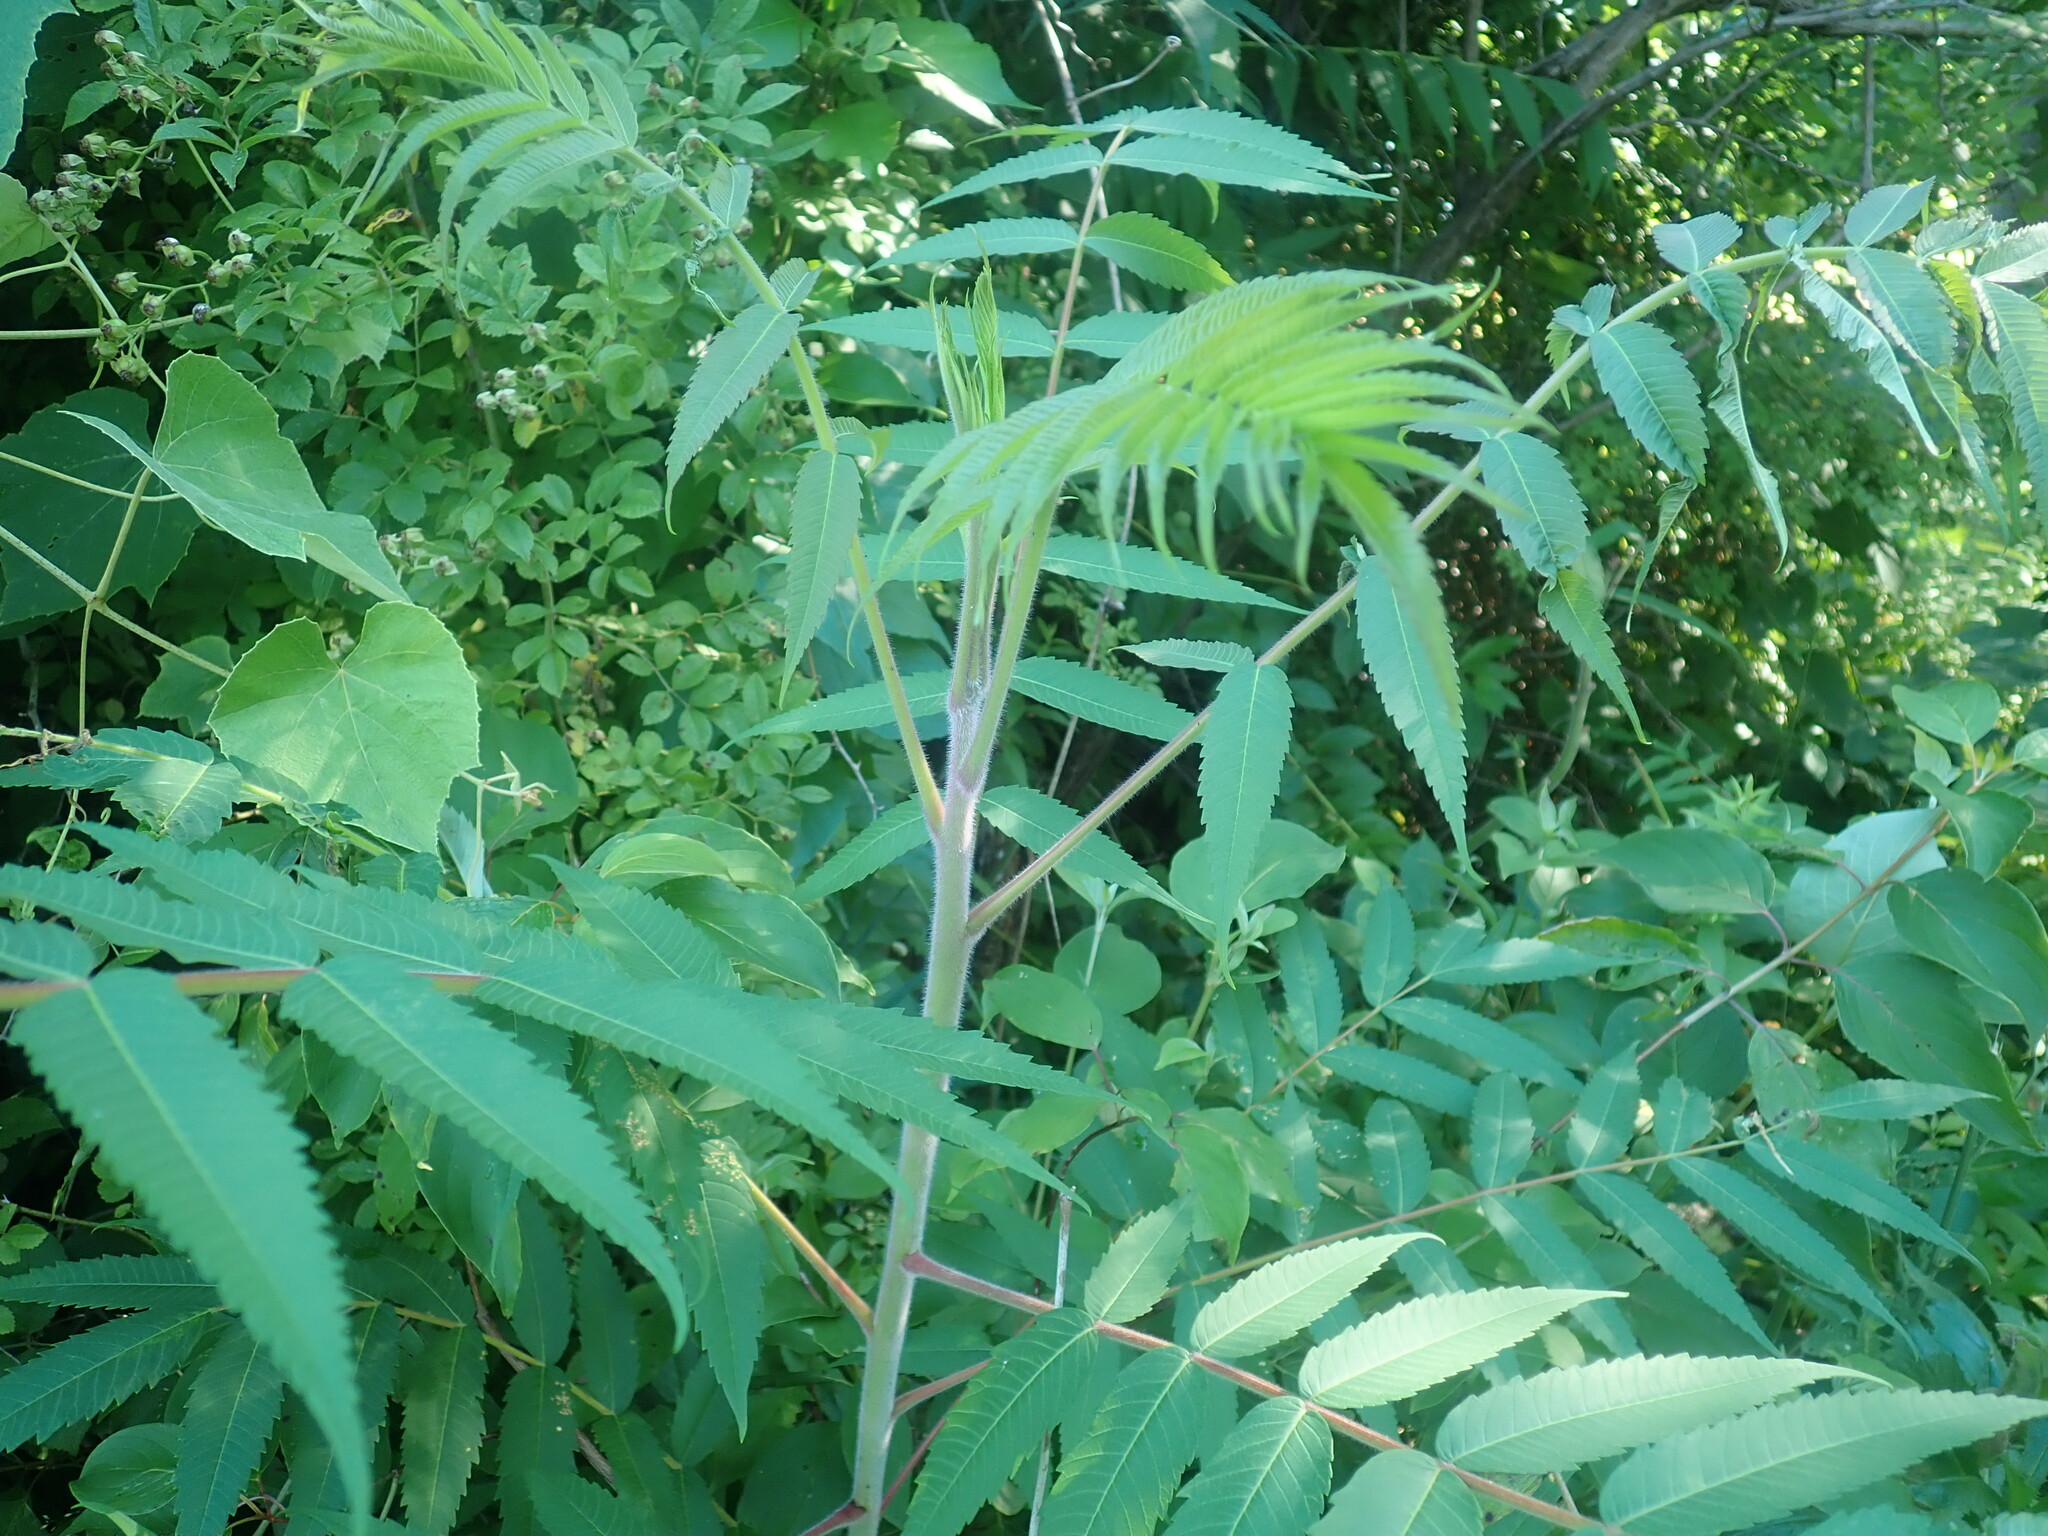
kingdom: Plantae
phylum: Tracheophyta
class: Magnoliopsida
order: Sapindales
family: Anacardiaceae
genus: Rhus
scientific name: Rhus typhina
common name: Staghorn sumac
